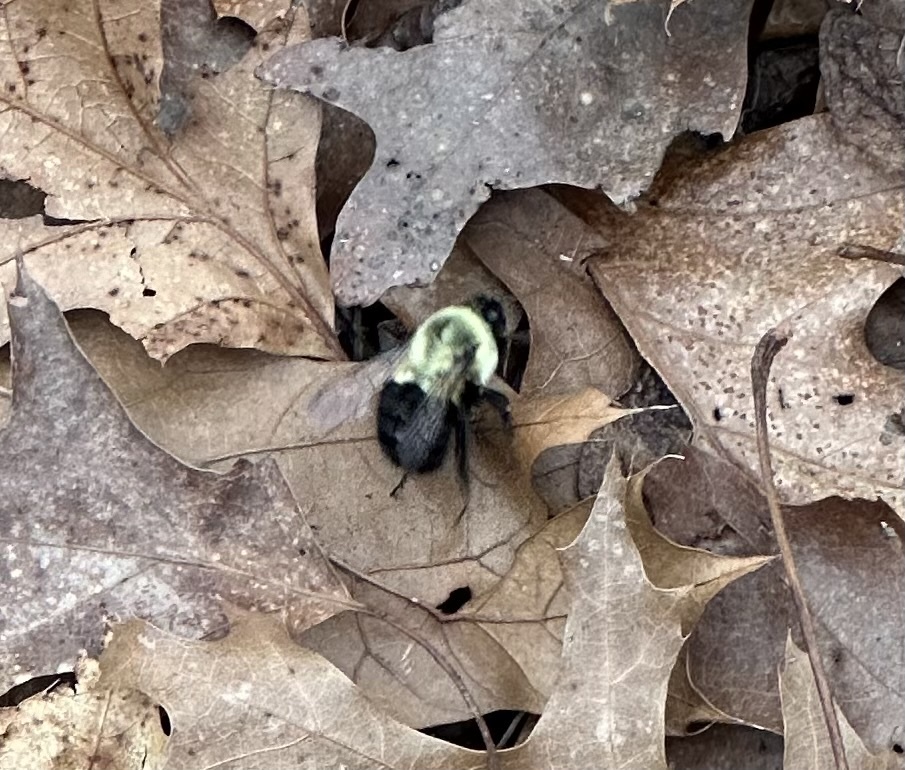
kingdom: Animalia
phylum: Arthropoda
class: Insecta
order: Hymenoptera
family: Apidae
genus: Bombus
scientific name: Bombus impatiens
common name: Common eastern bumble bee
